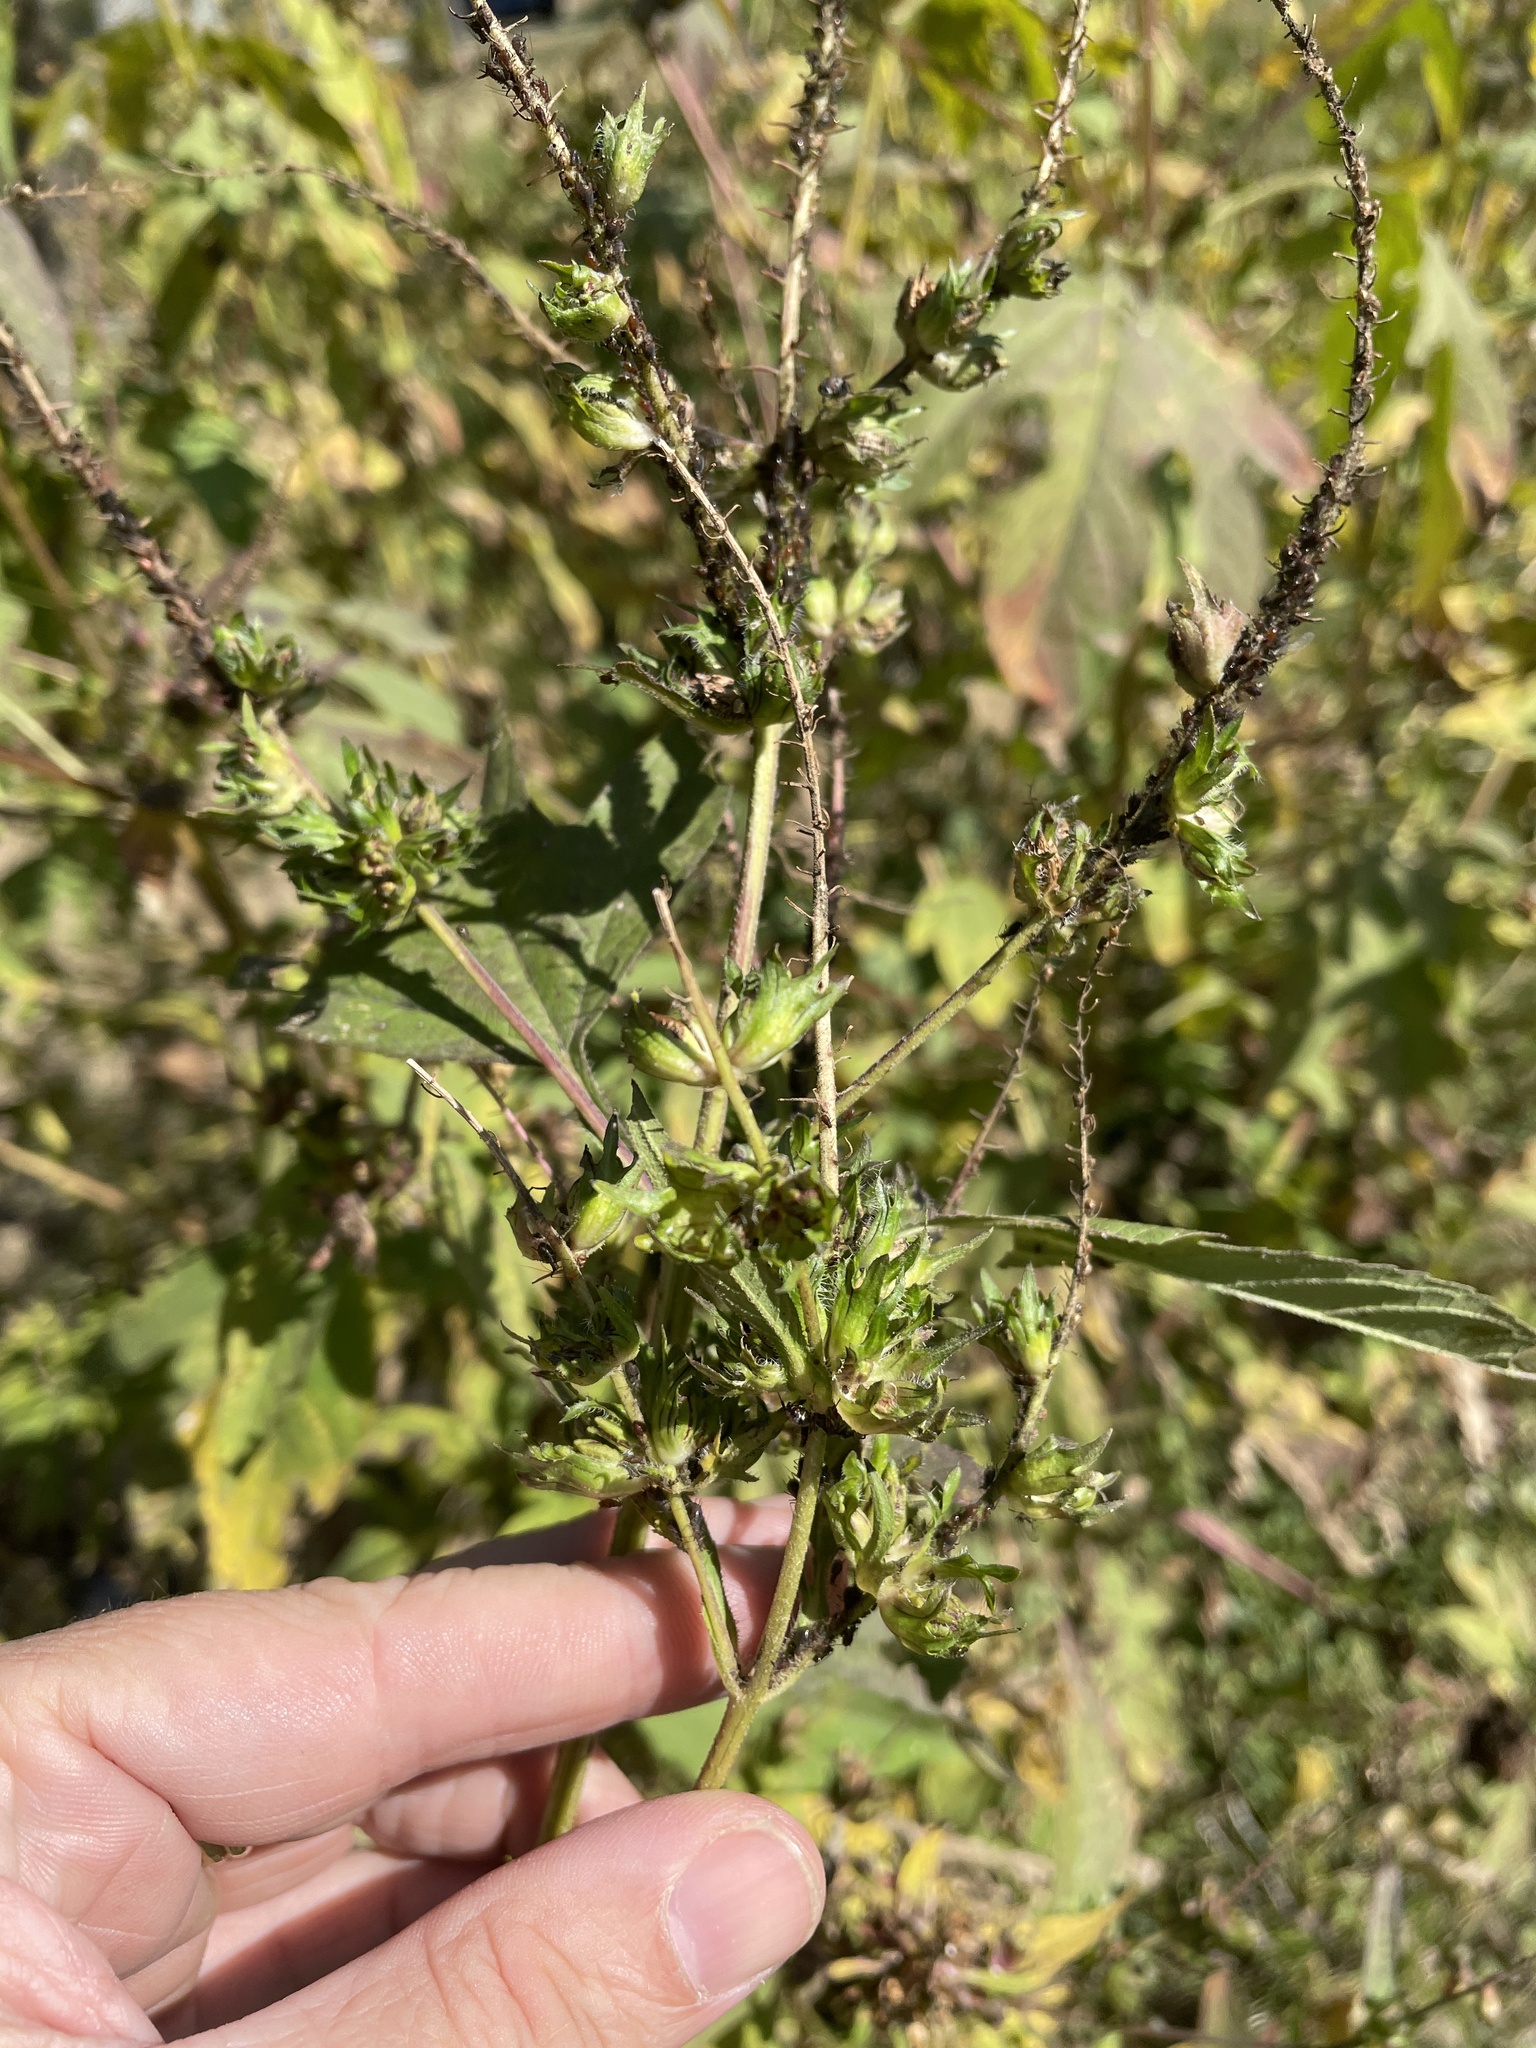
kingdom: Plantae
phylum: Tracheophyta
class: Magnoliopsida
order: Asterales
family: Asteraceae
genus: Ambrosia
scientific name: Ambrosia trifida
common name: Giant ragweed
